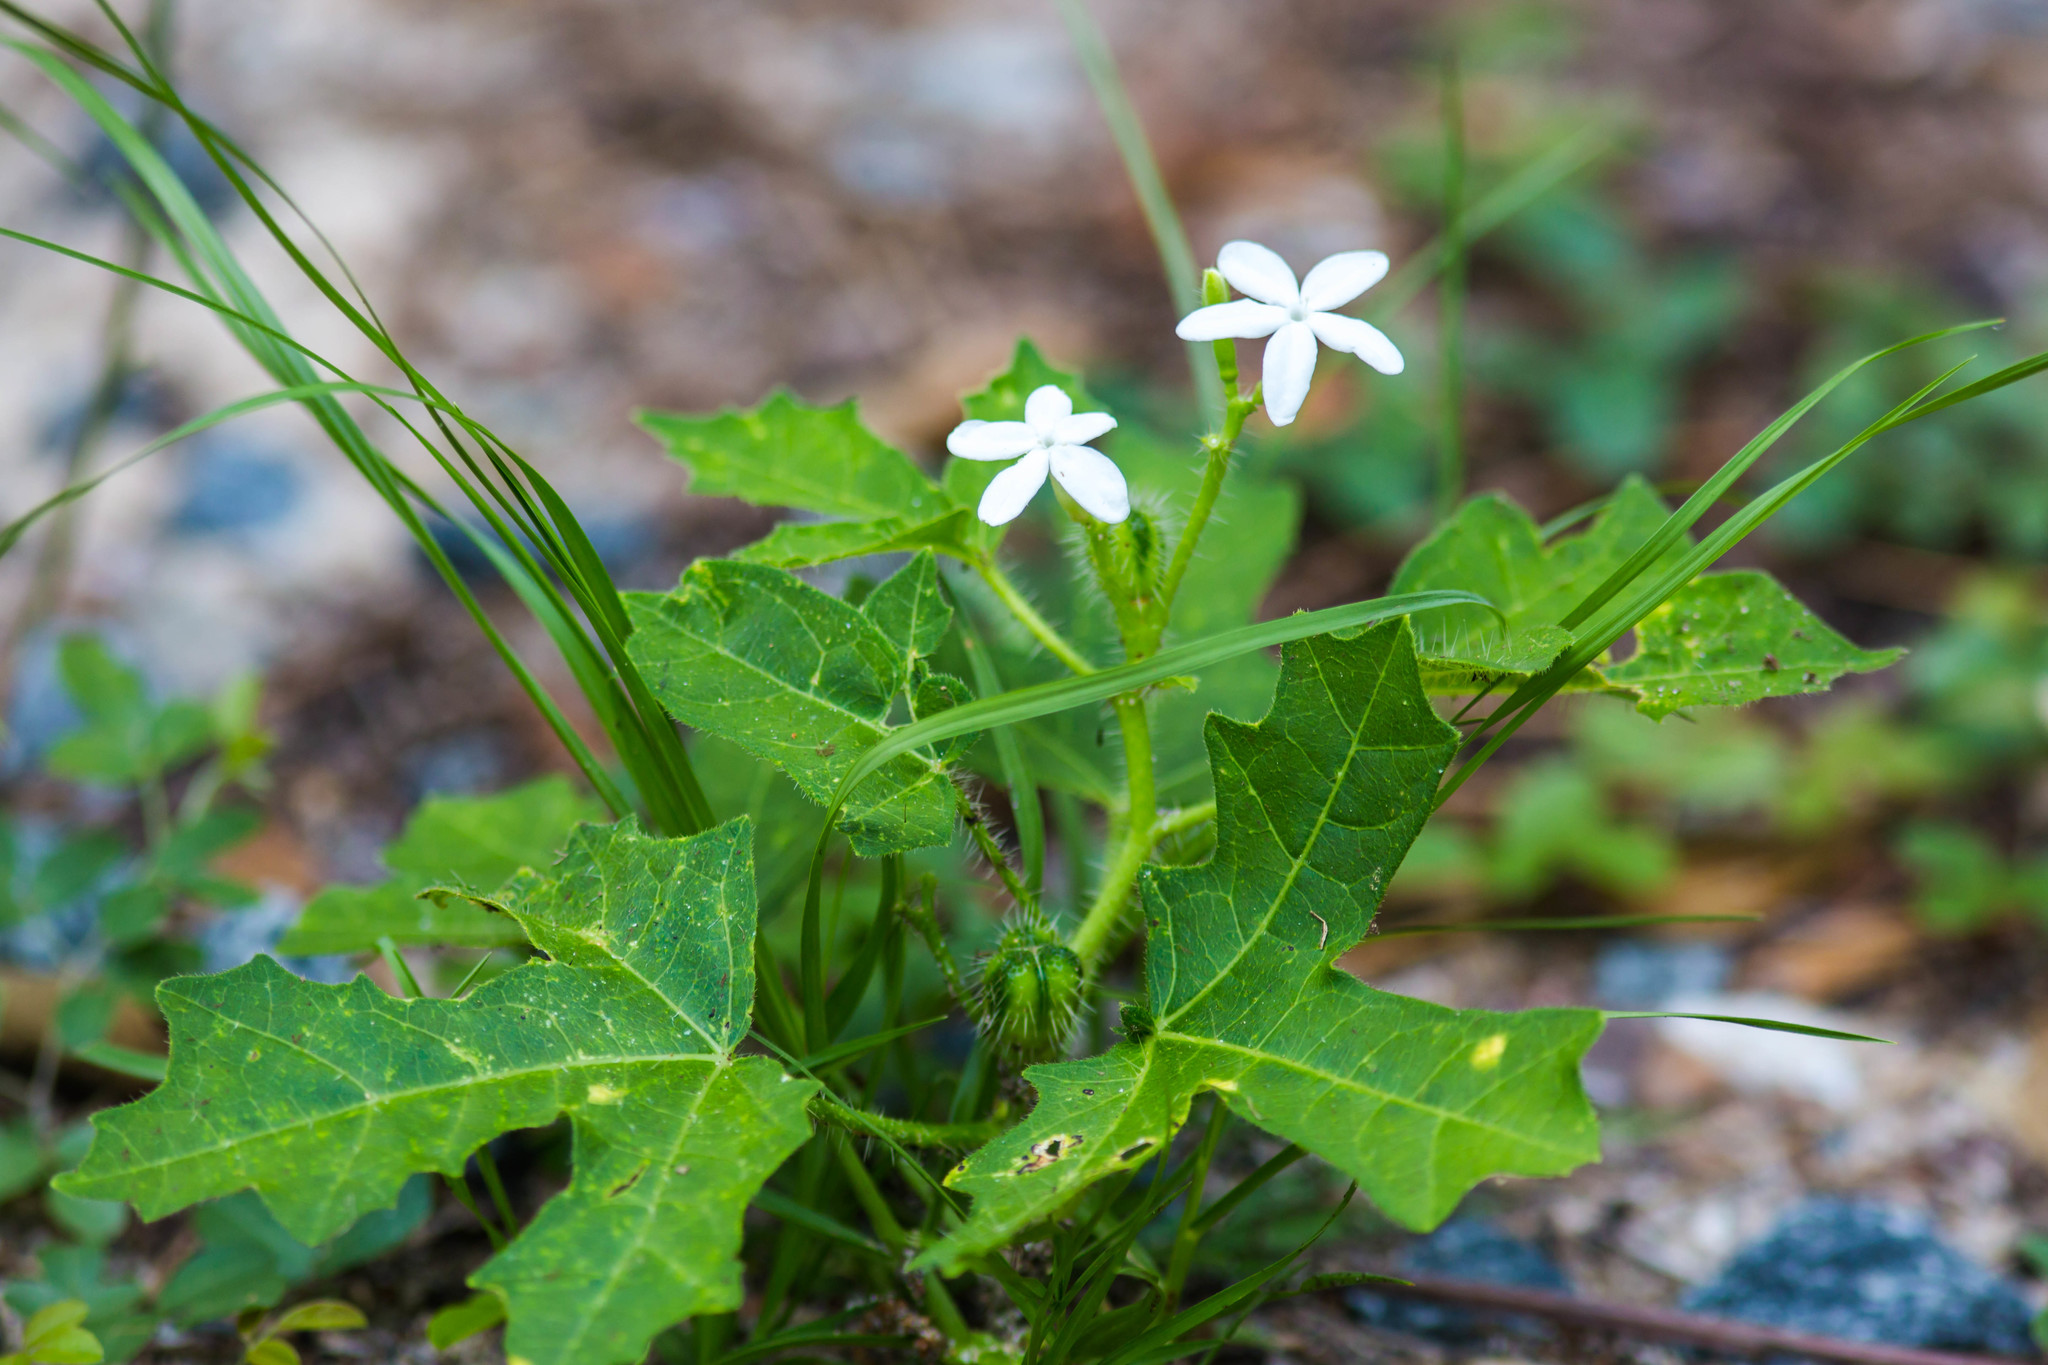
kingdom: Plantae
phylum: Tracheophyta
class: Magnoliopsida
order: Malpighiales
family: Euphorbiaceae
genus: Cnidoscolus
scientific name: Cnidoscolus stimulosus
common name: Bull-nettle
